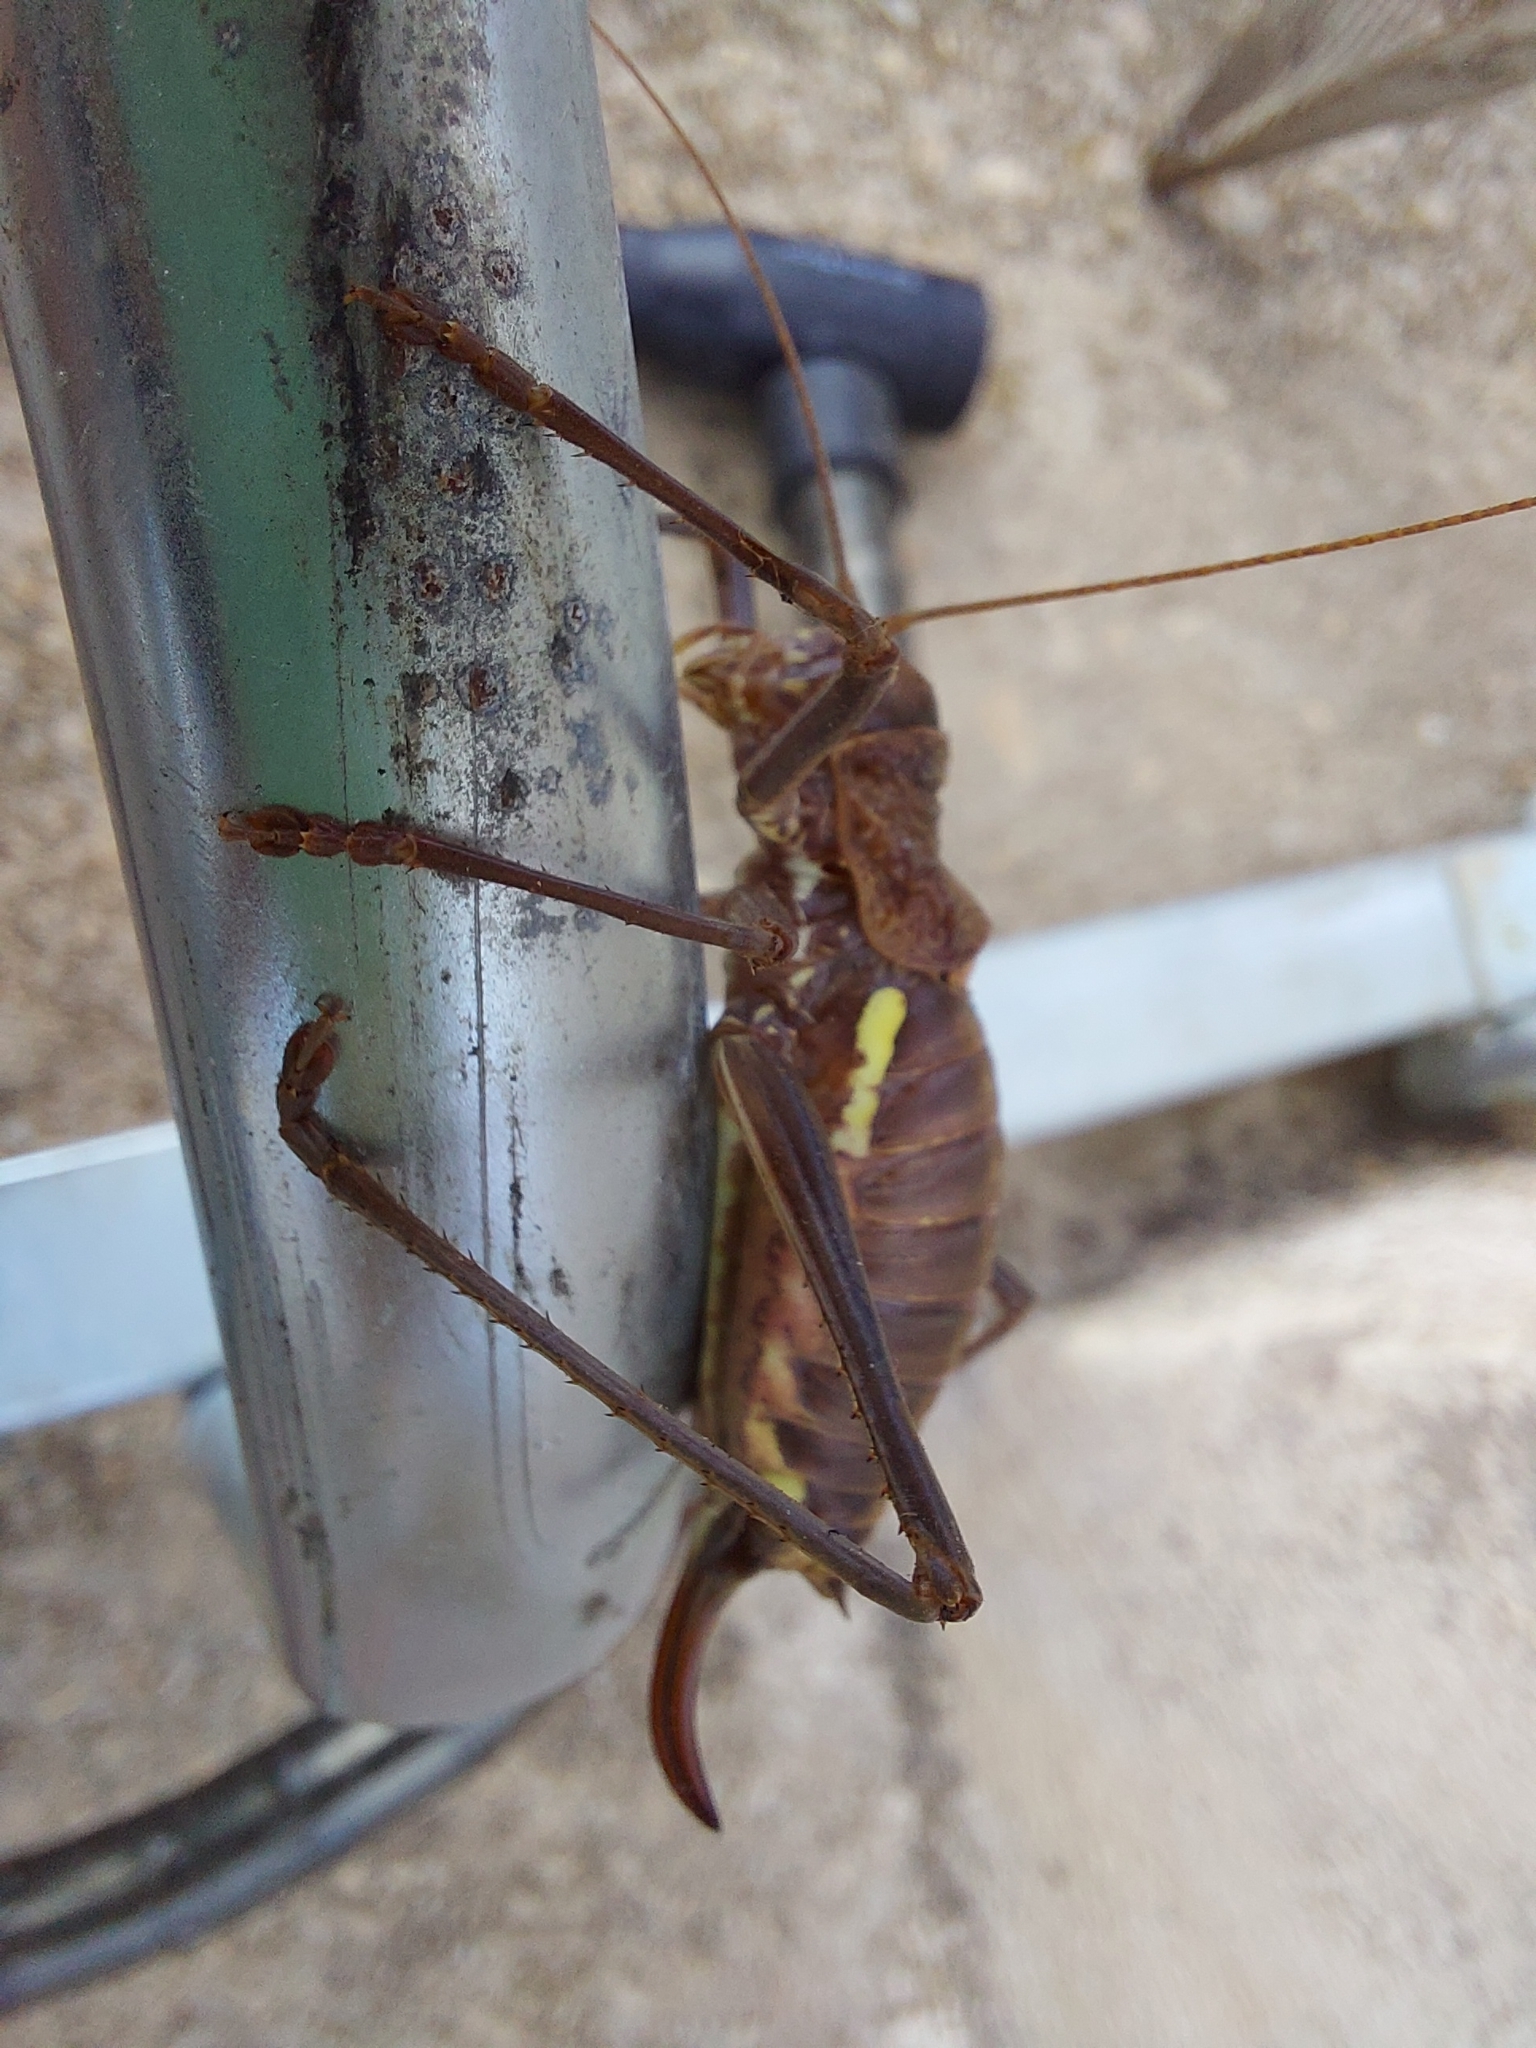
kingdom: Animalia
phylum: Arthropoda
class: Insecta
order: Orthoptera
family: Tettigoniidae
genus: Uromenus
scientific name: Uromenus brevicollis
